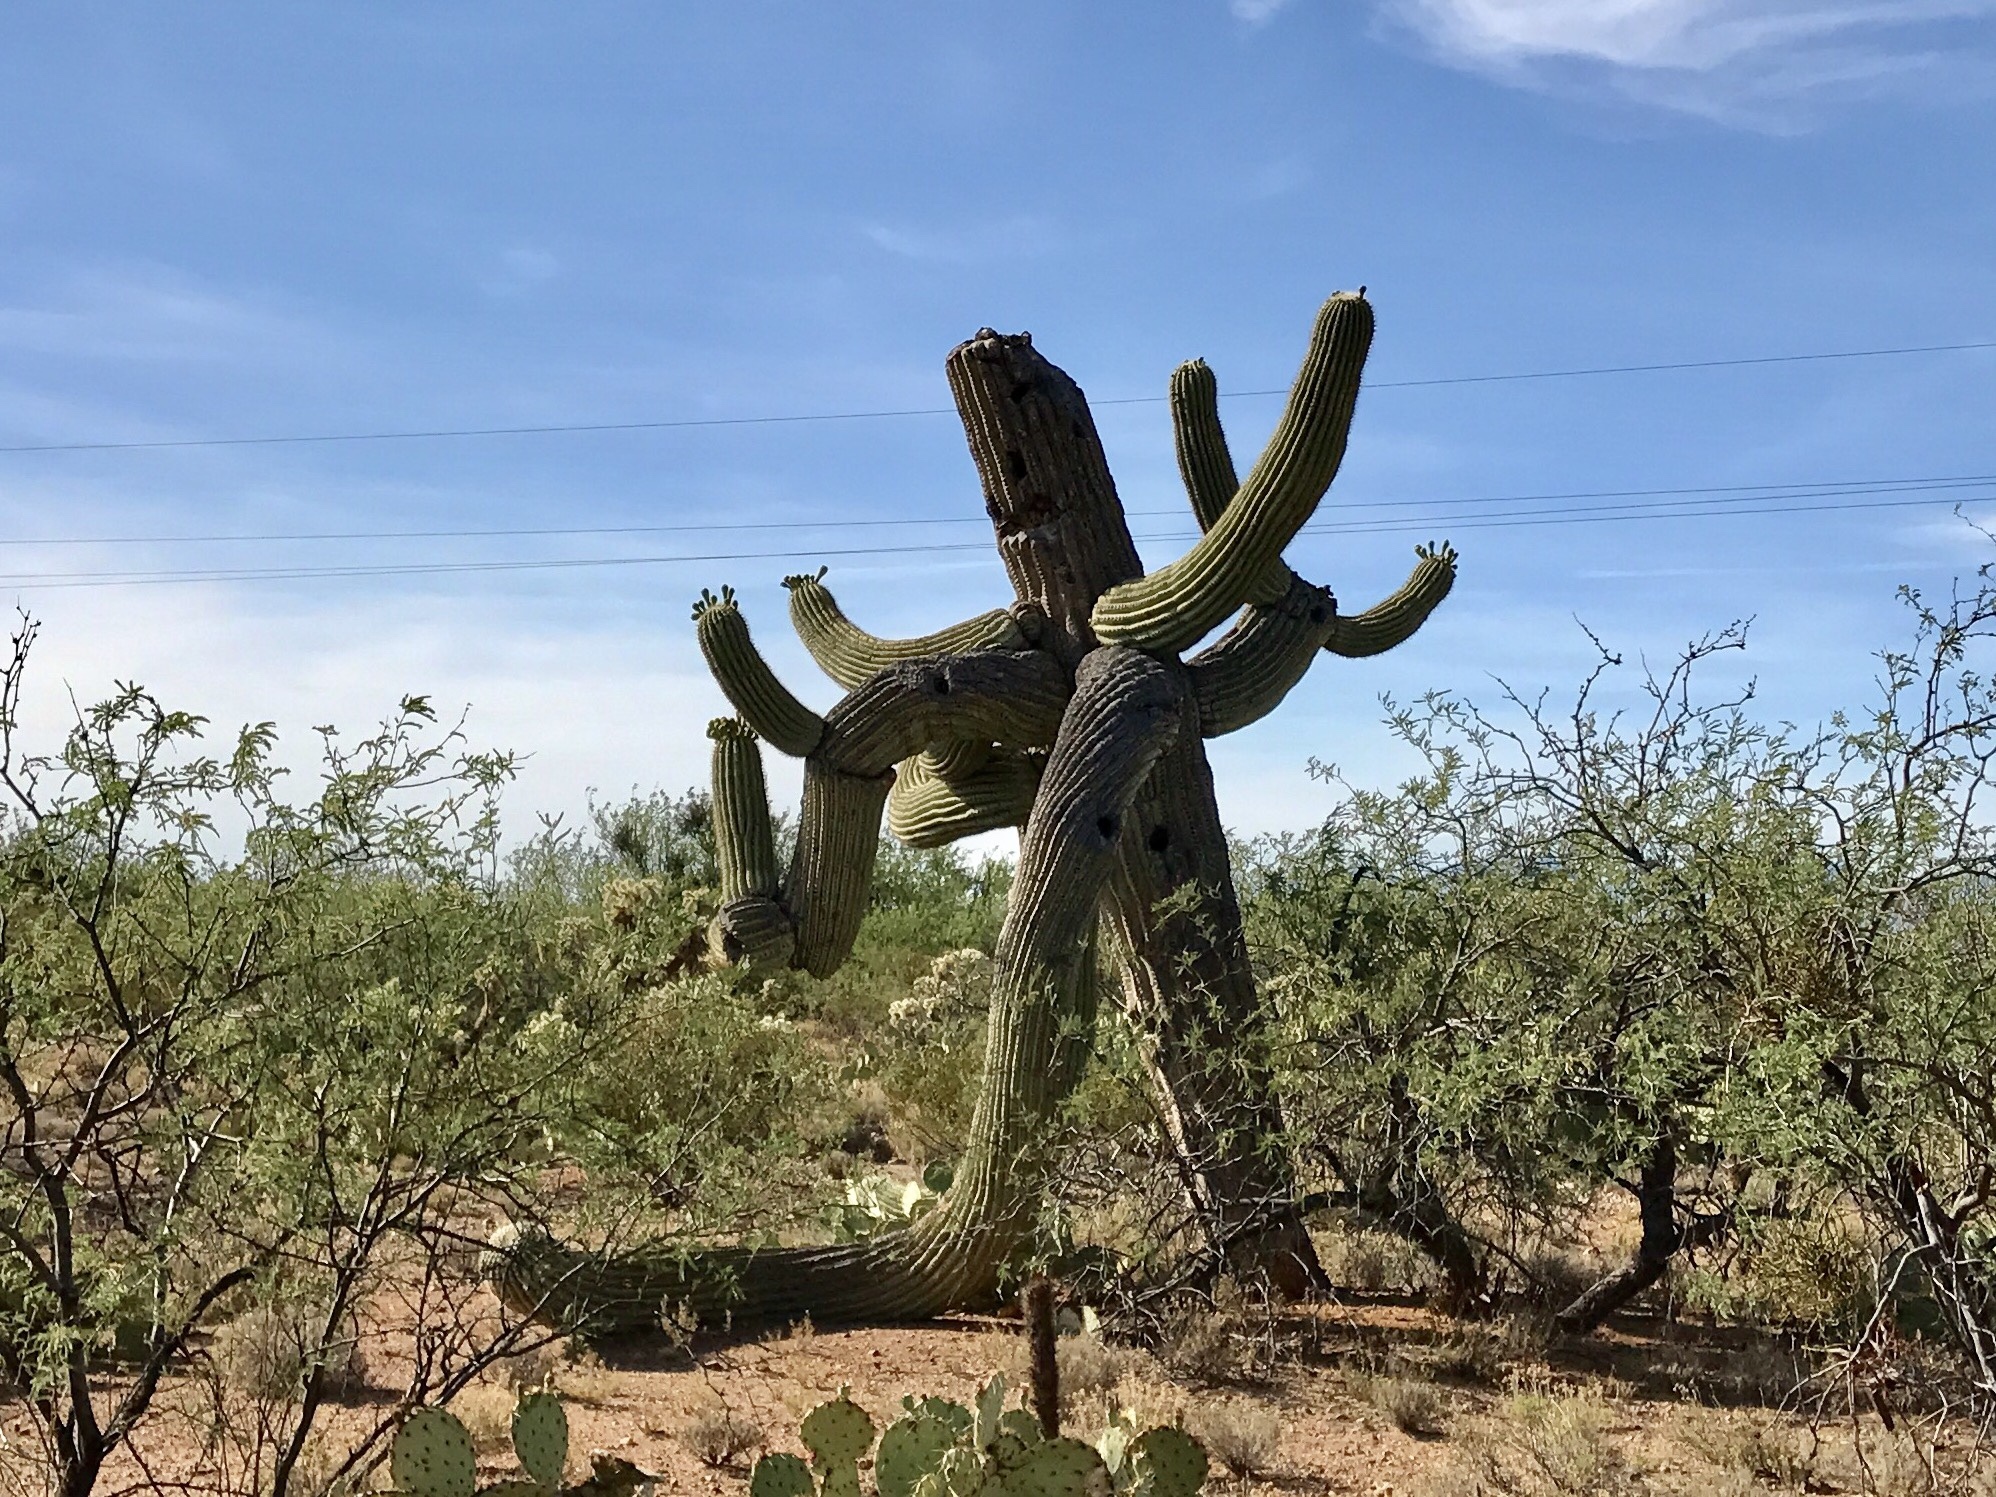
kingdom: Plantae
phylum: Tracheophyta
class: Magnoliopsida
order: Caryophyllales
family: Cactaceae
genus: Carnegiea
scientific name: Carnegiea gigantea
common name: Saguaro
